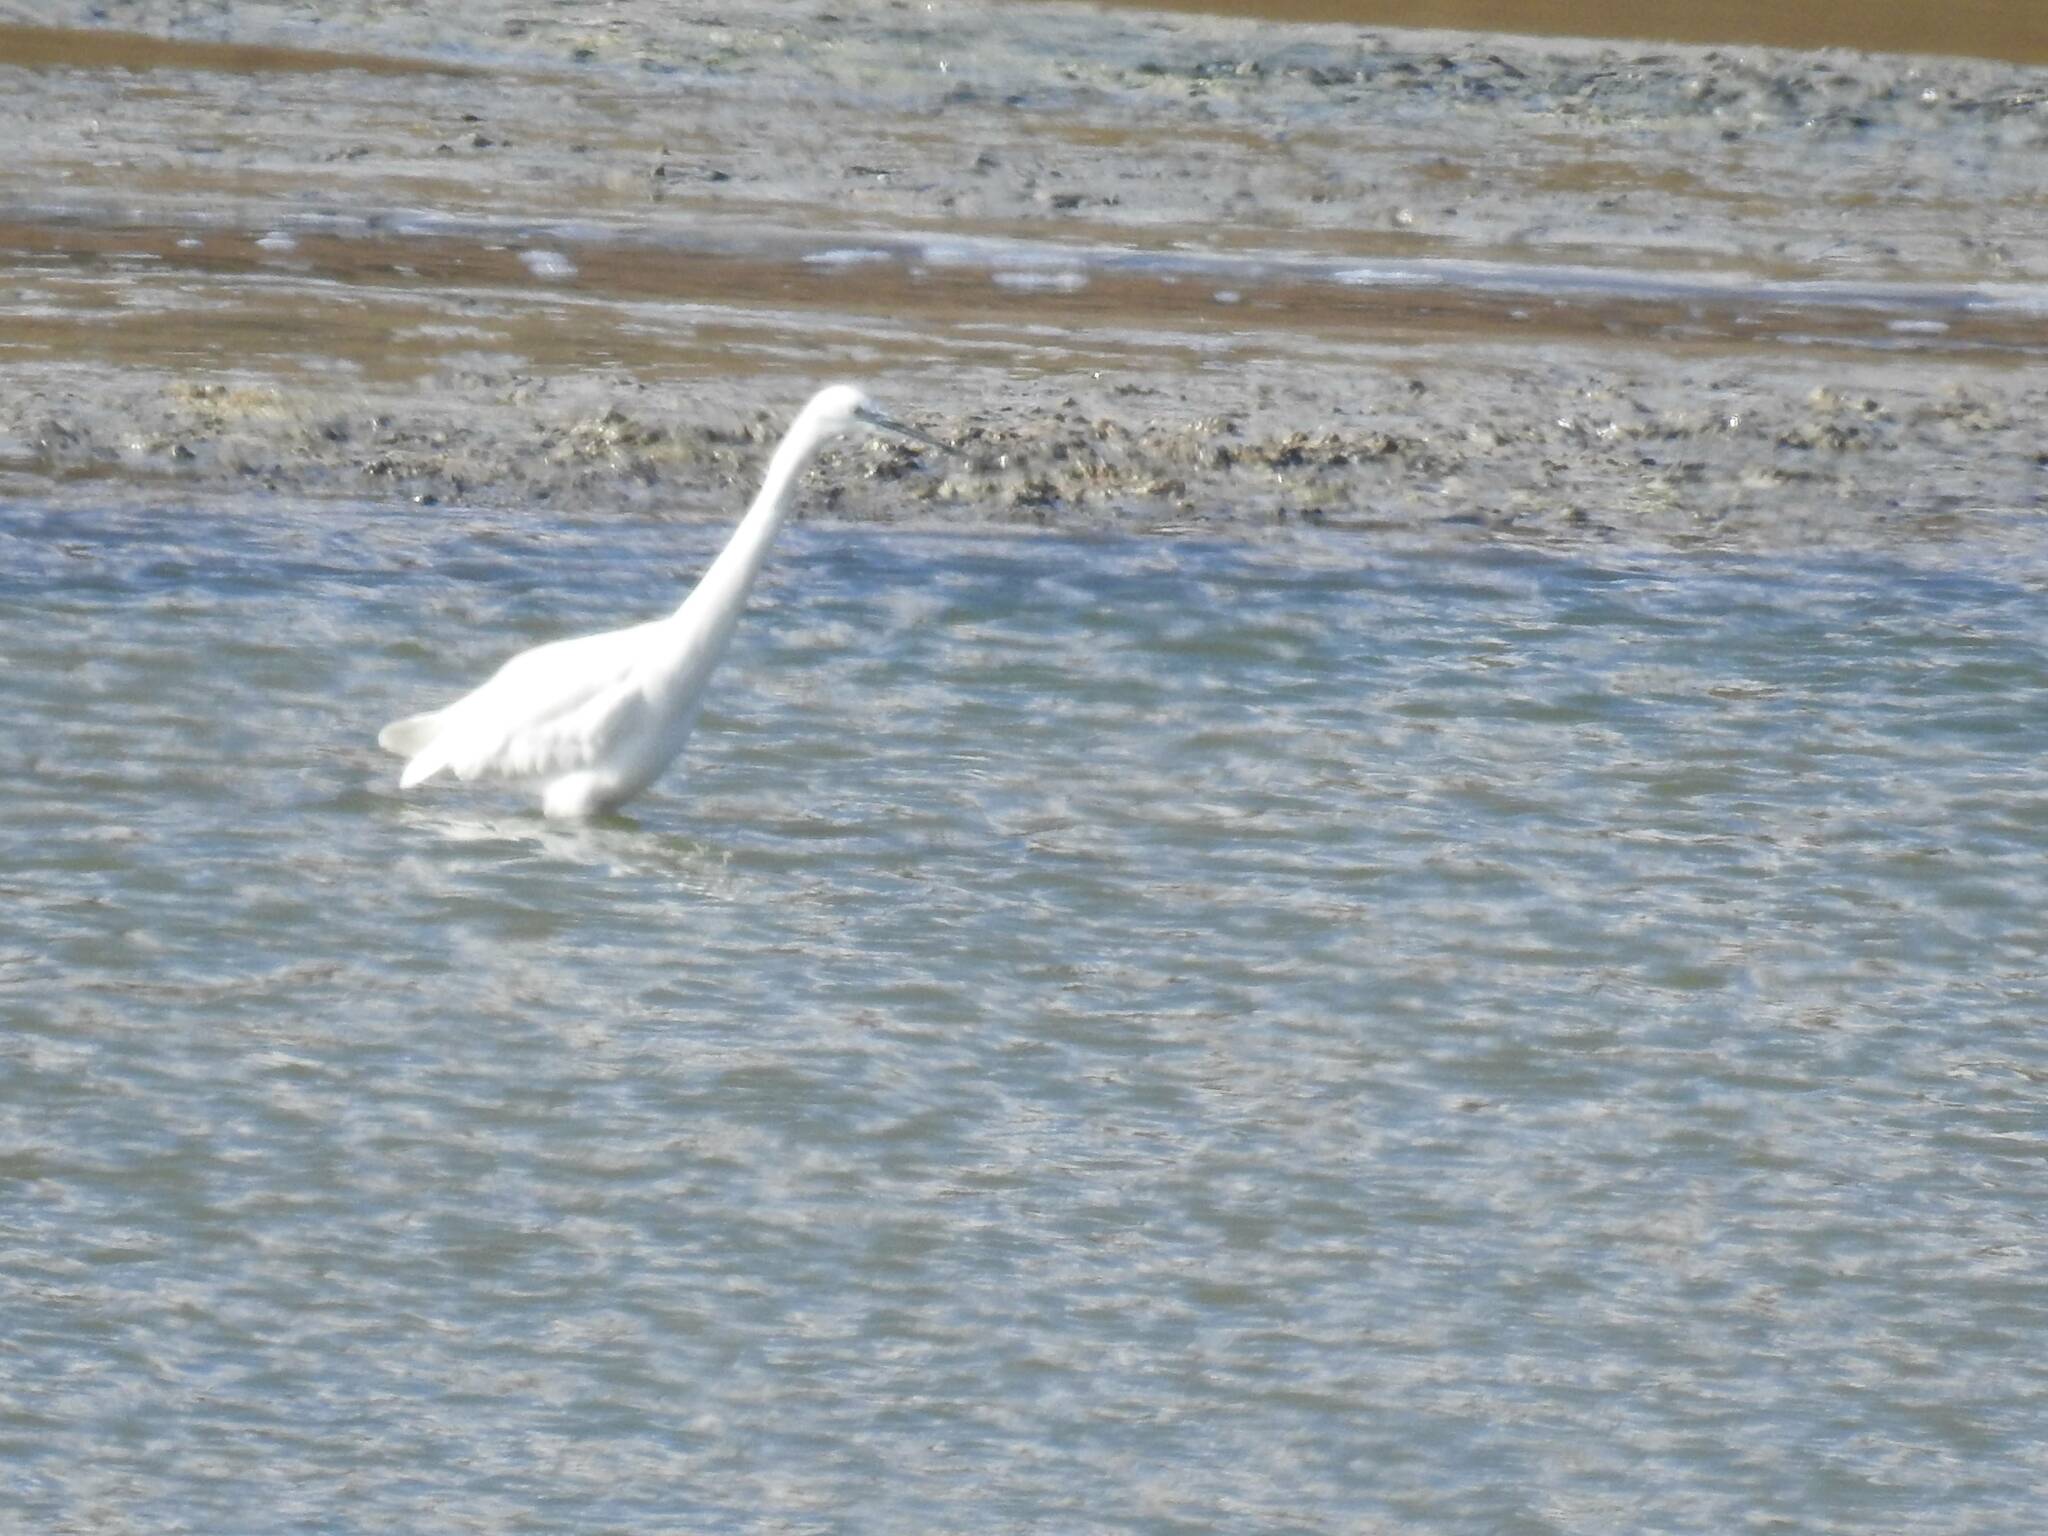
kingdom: Animalia
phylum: Chordata
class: Aves
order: Pelecaniformes
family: Ardeidae
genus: Egretta
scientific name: Egretta garzetta
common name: Little egret
